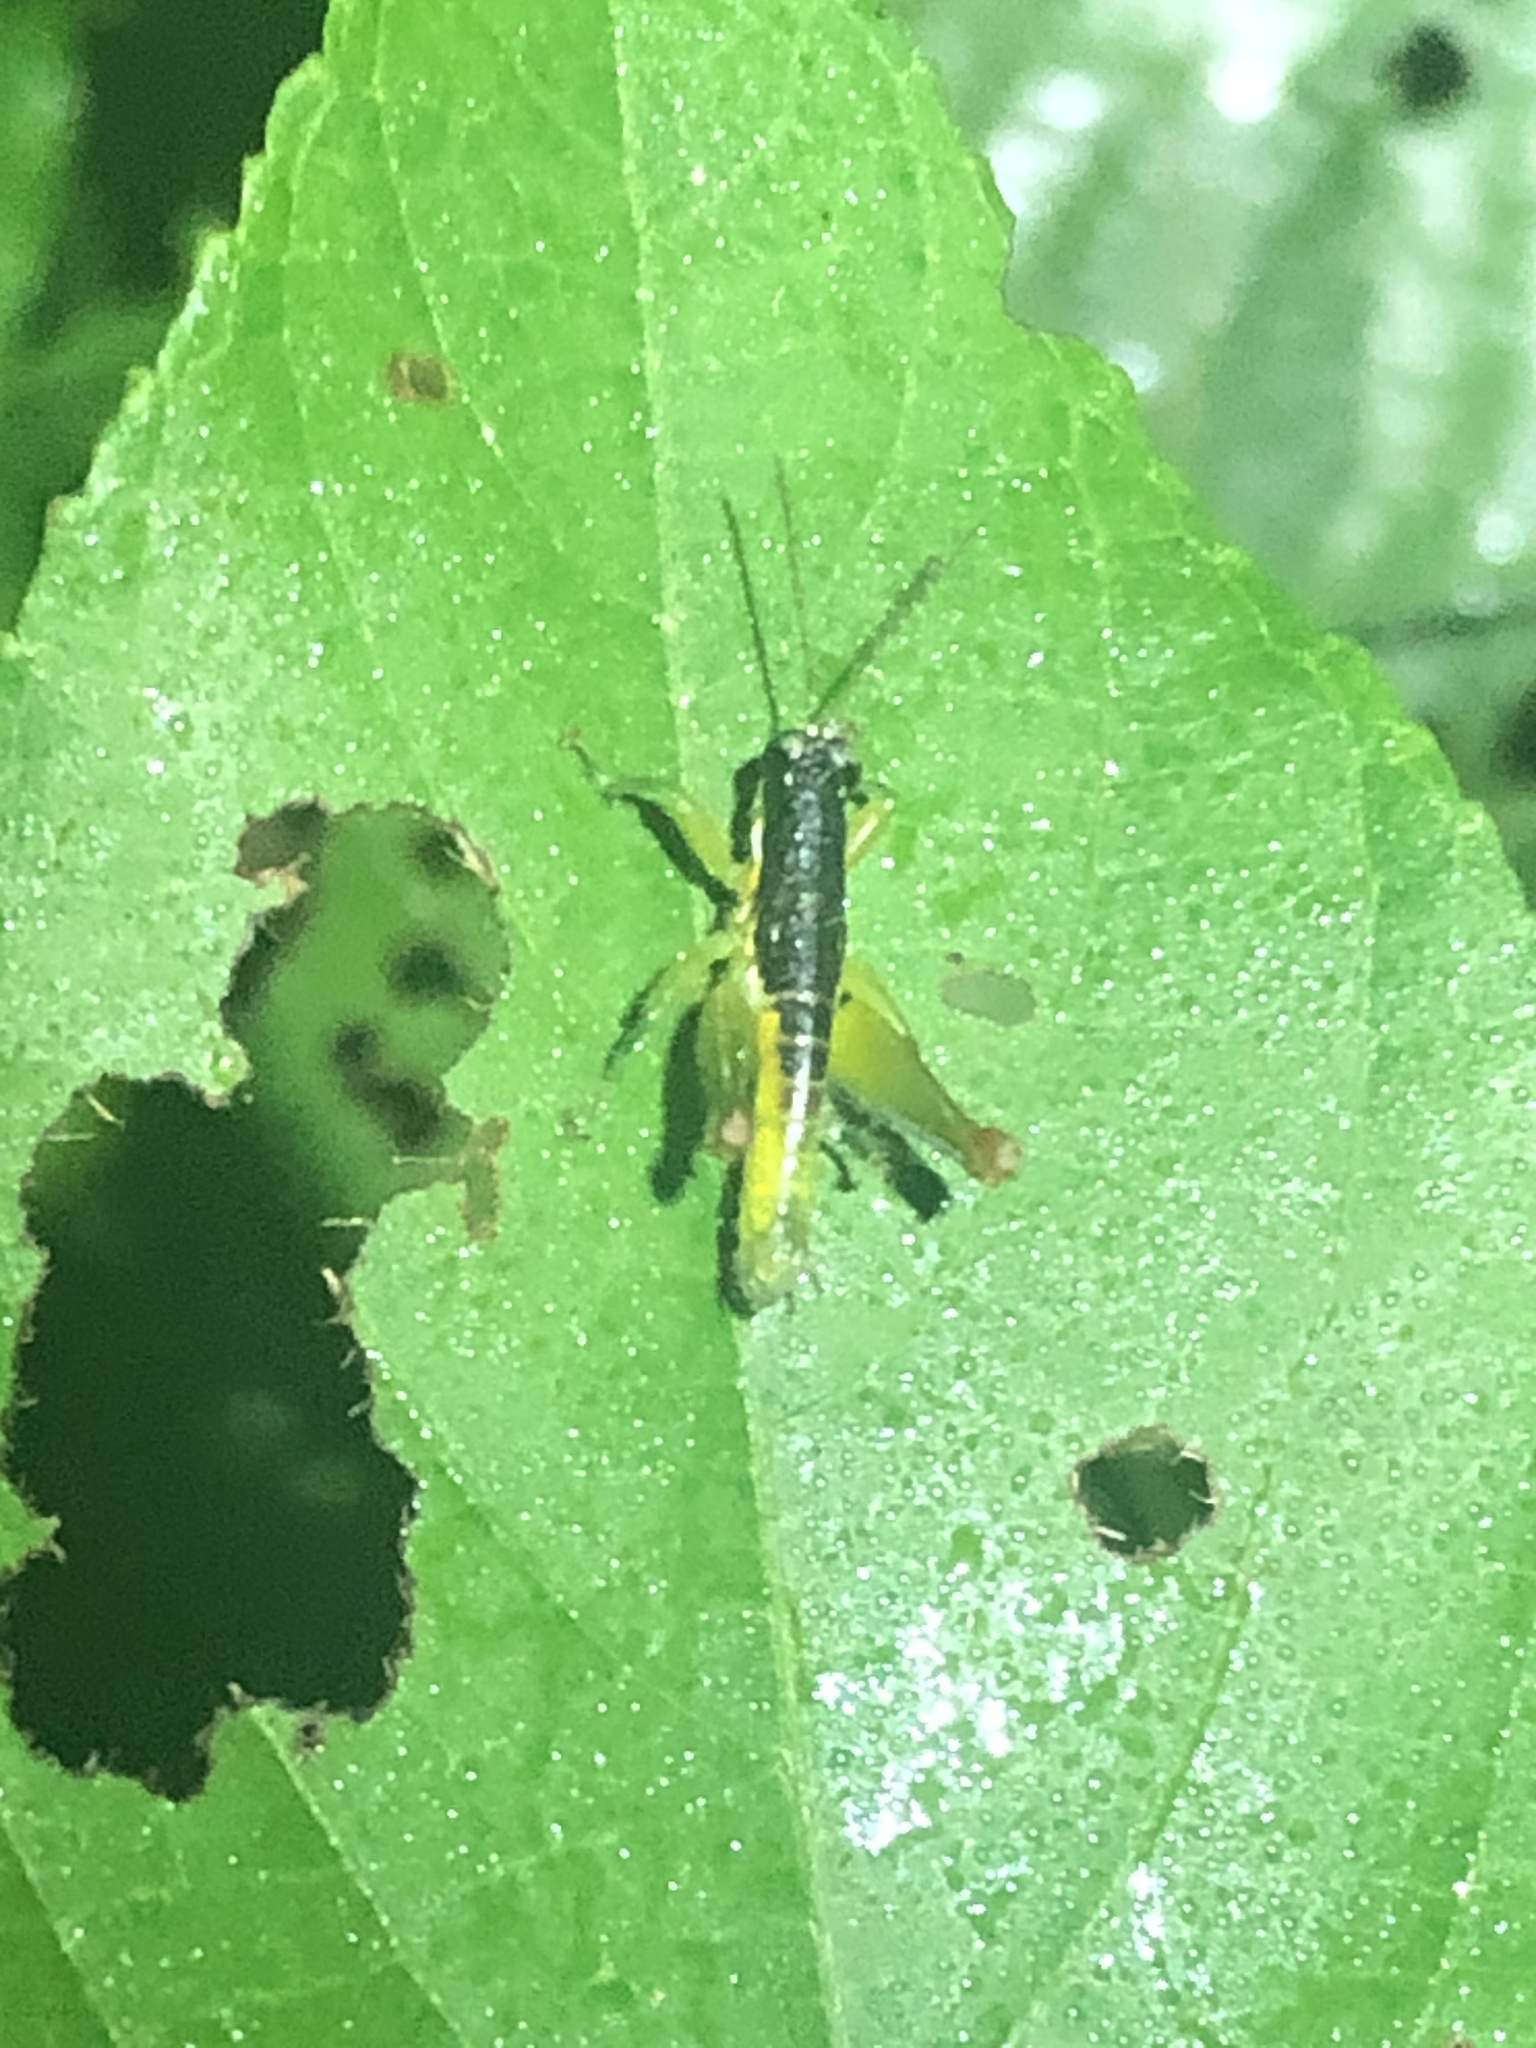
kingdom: Animalia
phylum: Arthropoda
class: Insecta
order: Orthoptera
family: Acrididae
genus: Liebermannacris
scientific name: Liebermannacris dorsualis
